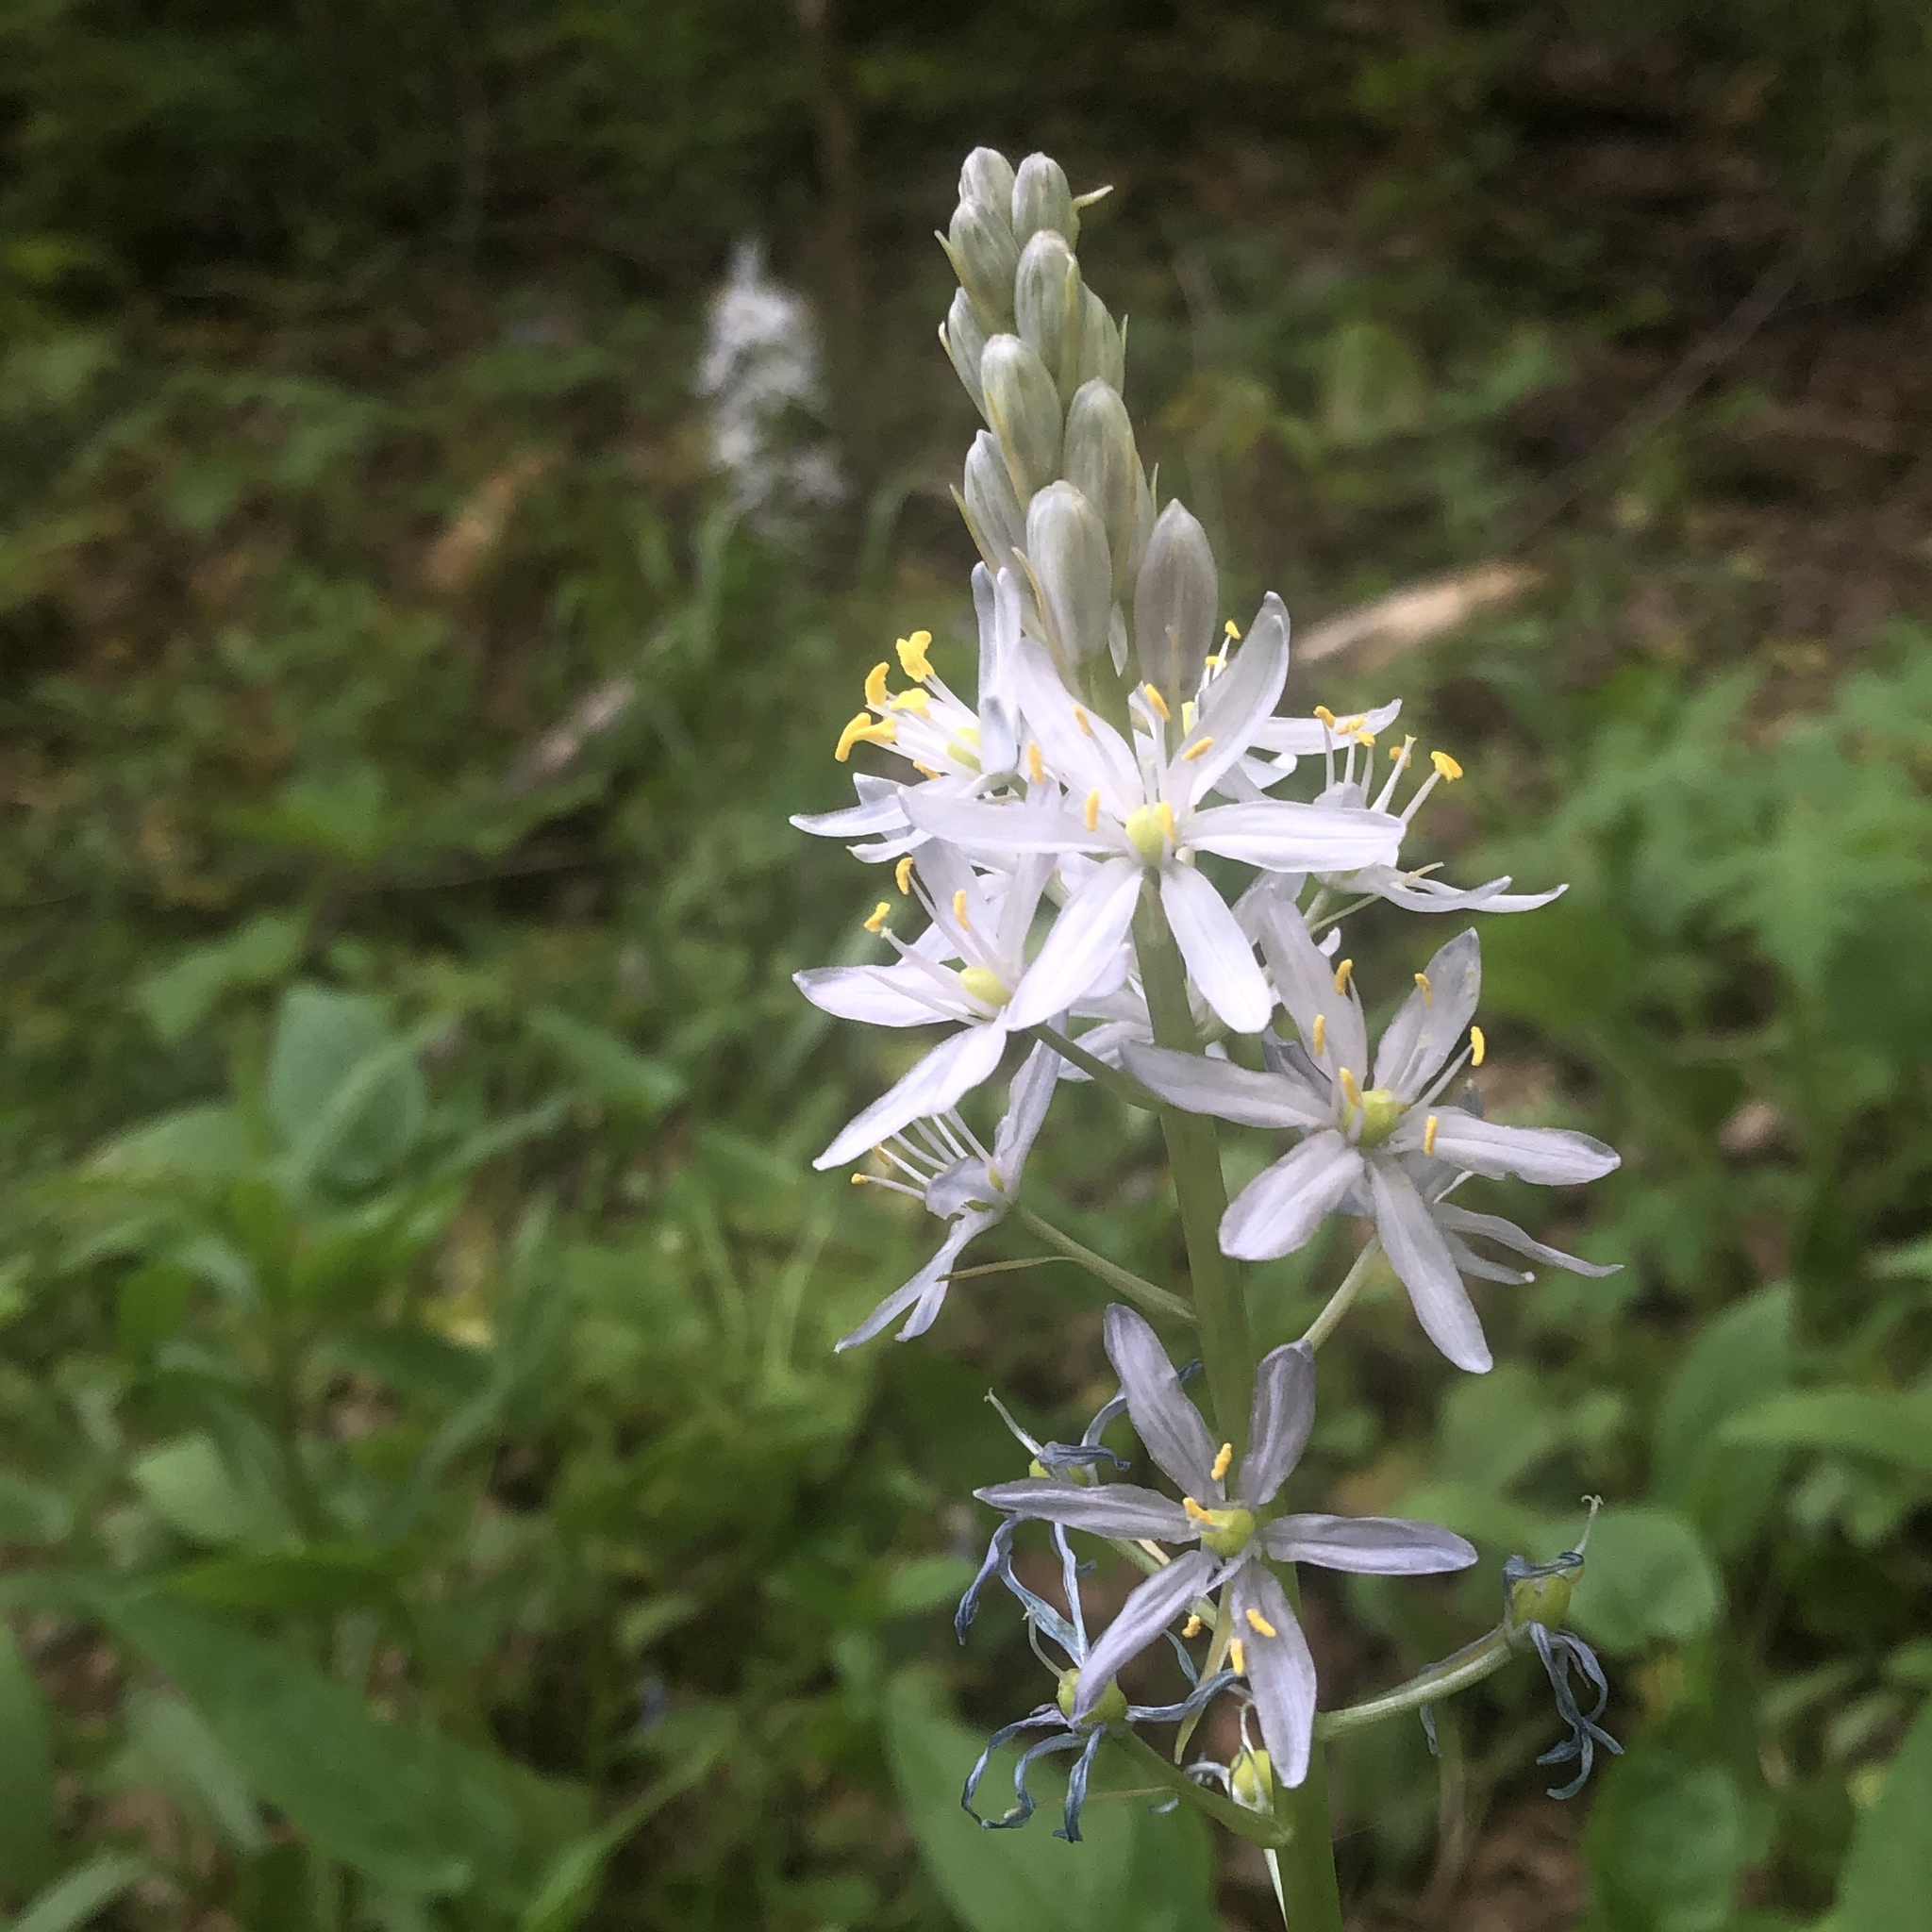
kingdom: Plantae
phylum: Tracheophyta
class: Liliopsida
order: Asparagales
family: Asparagaceae
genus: Camassia
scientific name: Camassia scilloides
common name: Wild hyacinth
